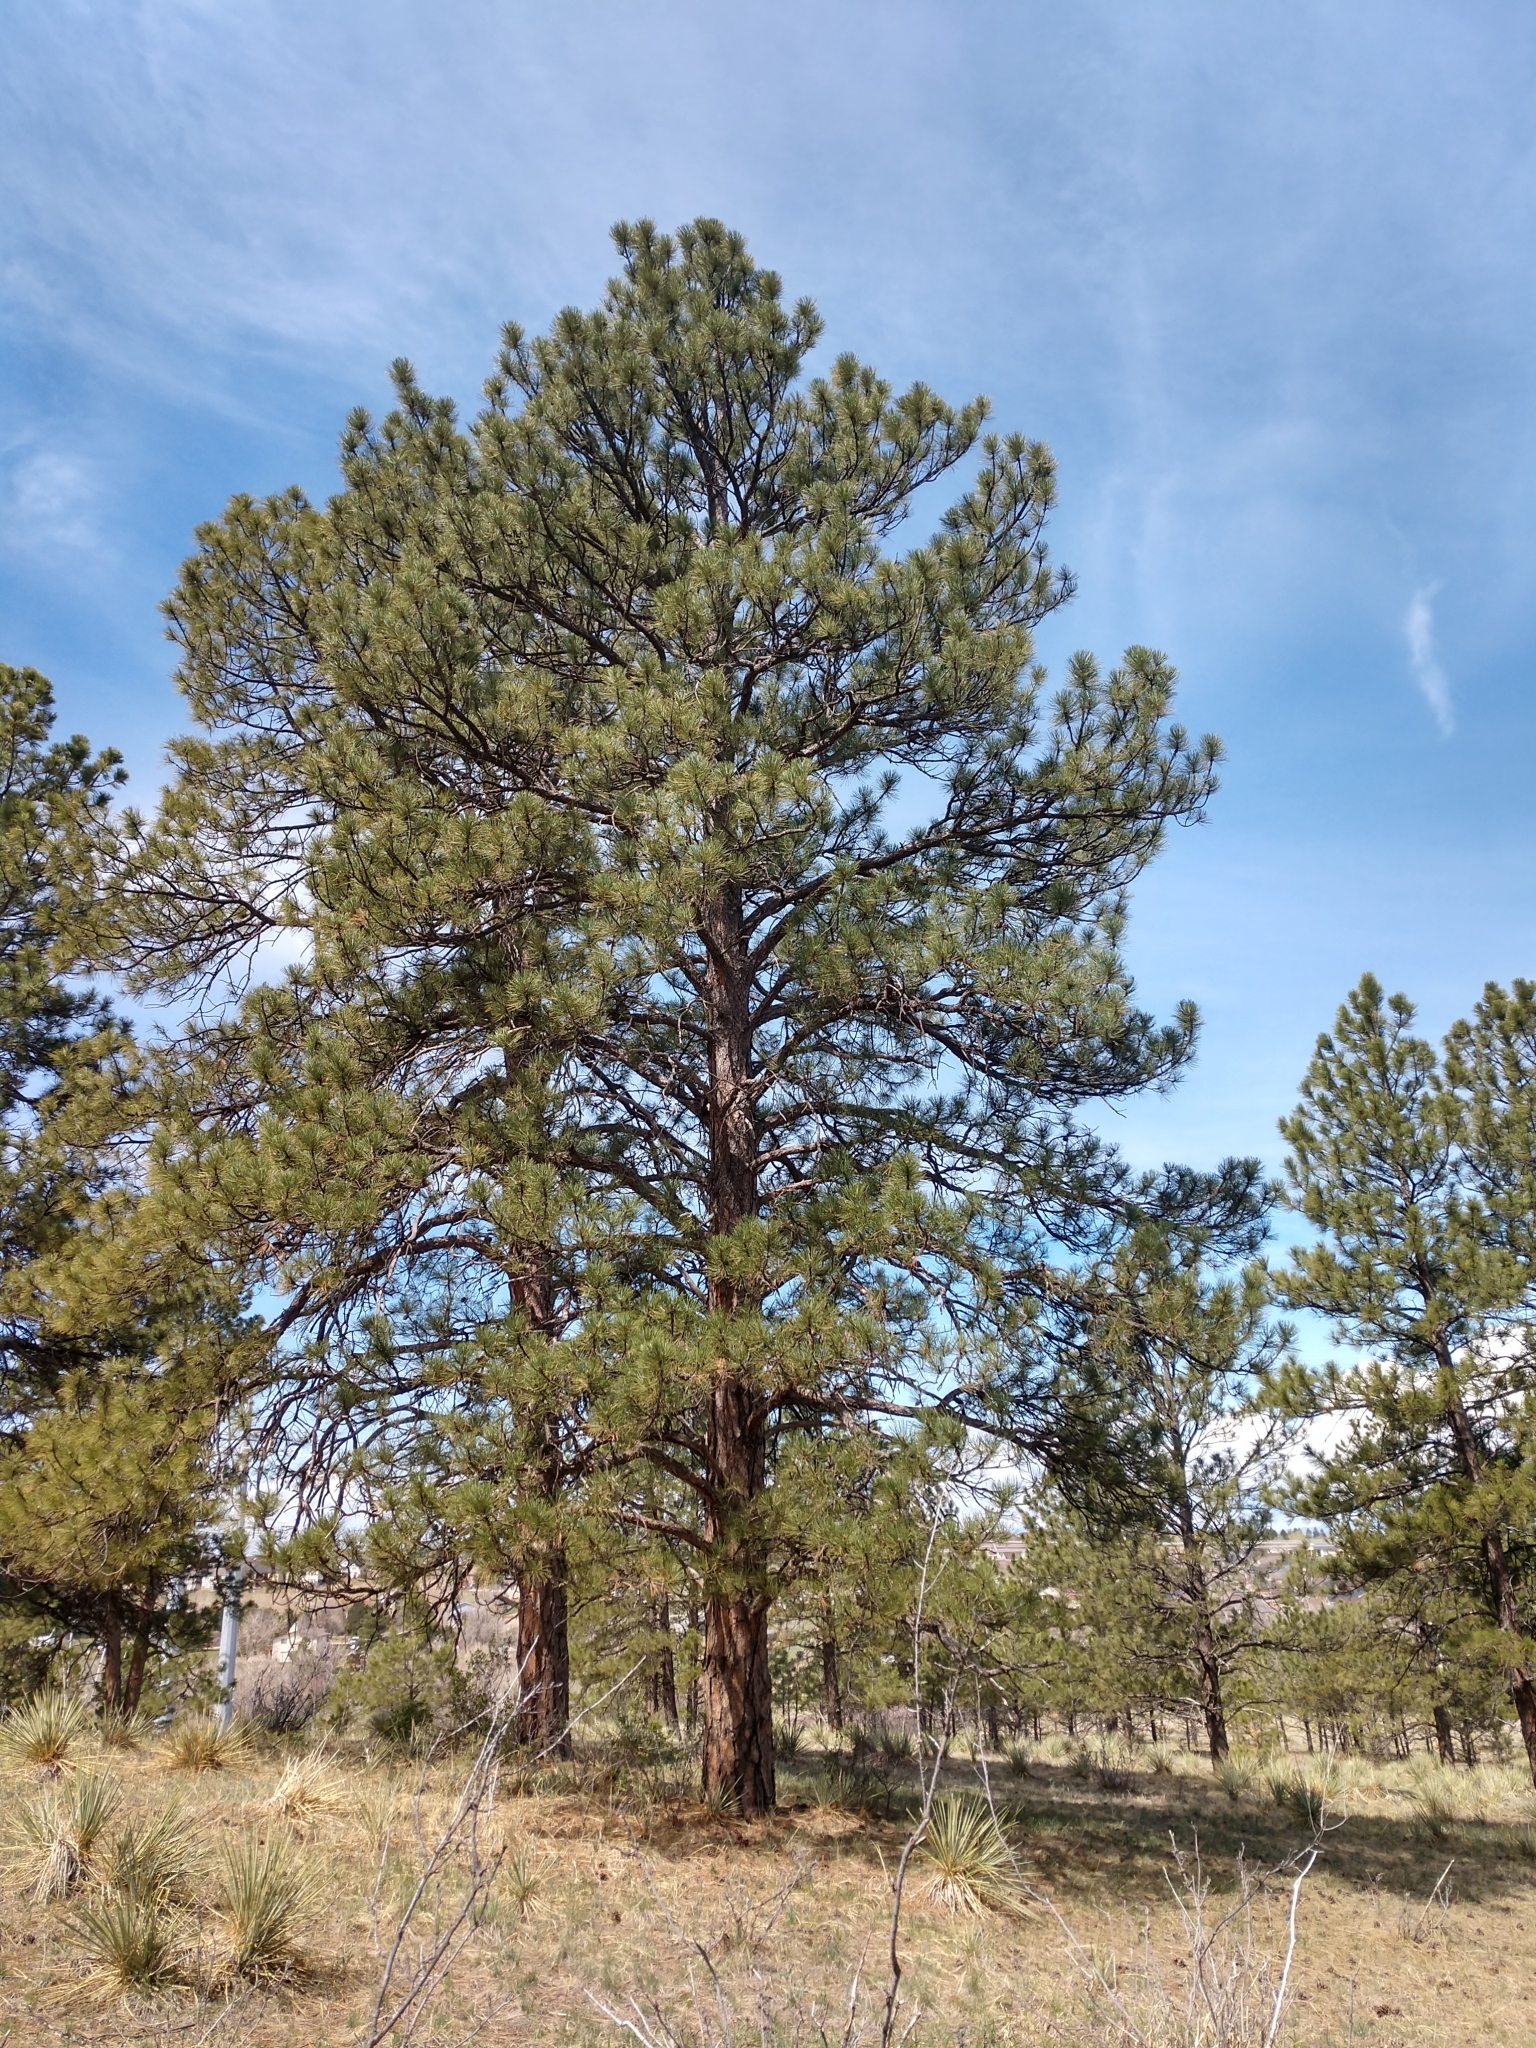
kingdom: Plantae
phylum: Tracheophyta
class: Pinopsida
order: Pinales
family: Pinaceae
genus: Pinus
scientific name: Pinus ponderosa
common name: Western yellow-pine
